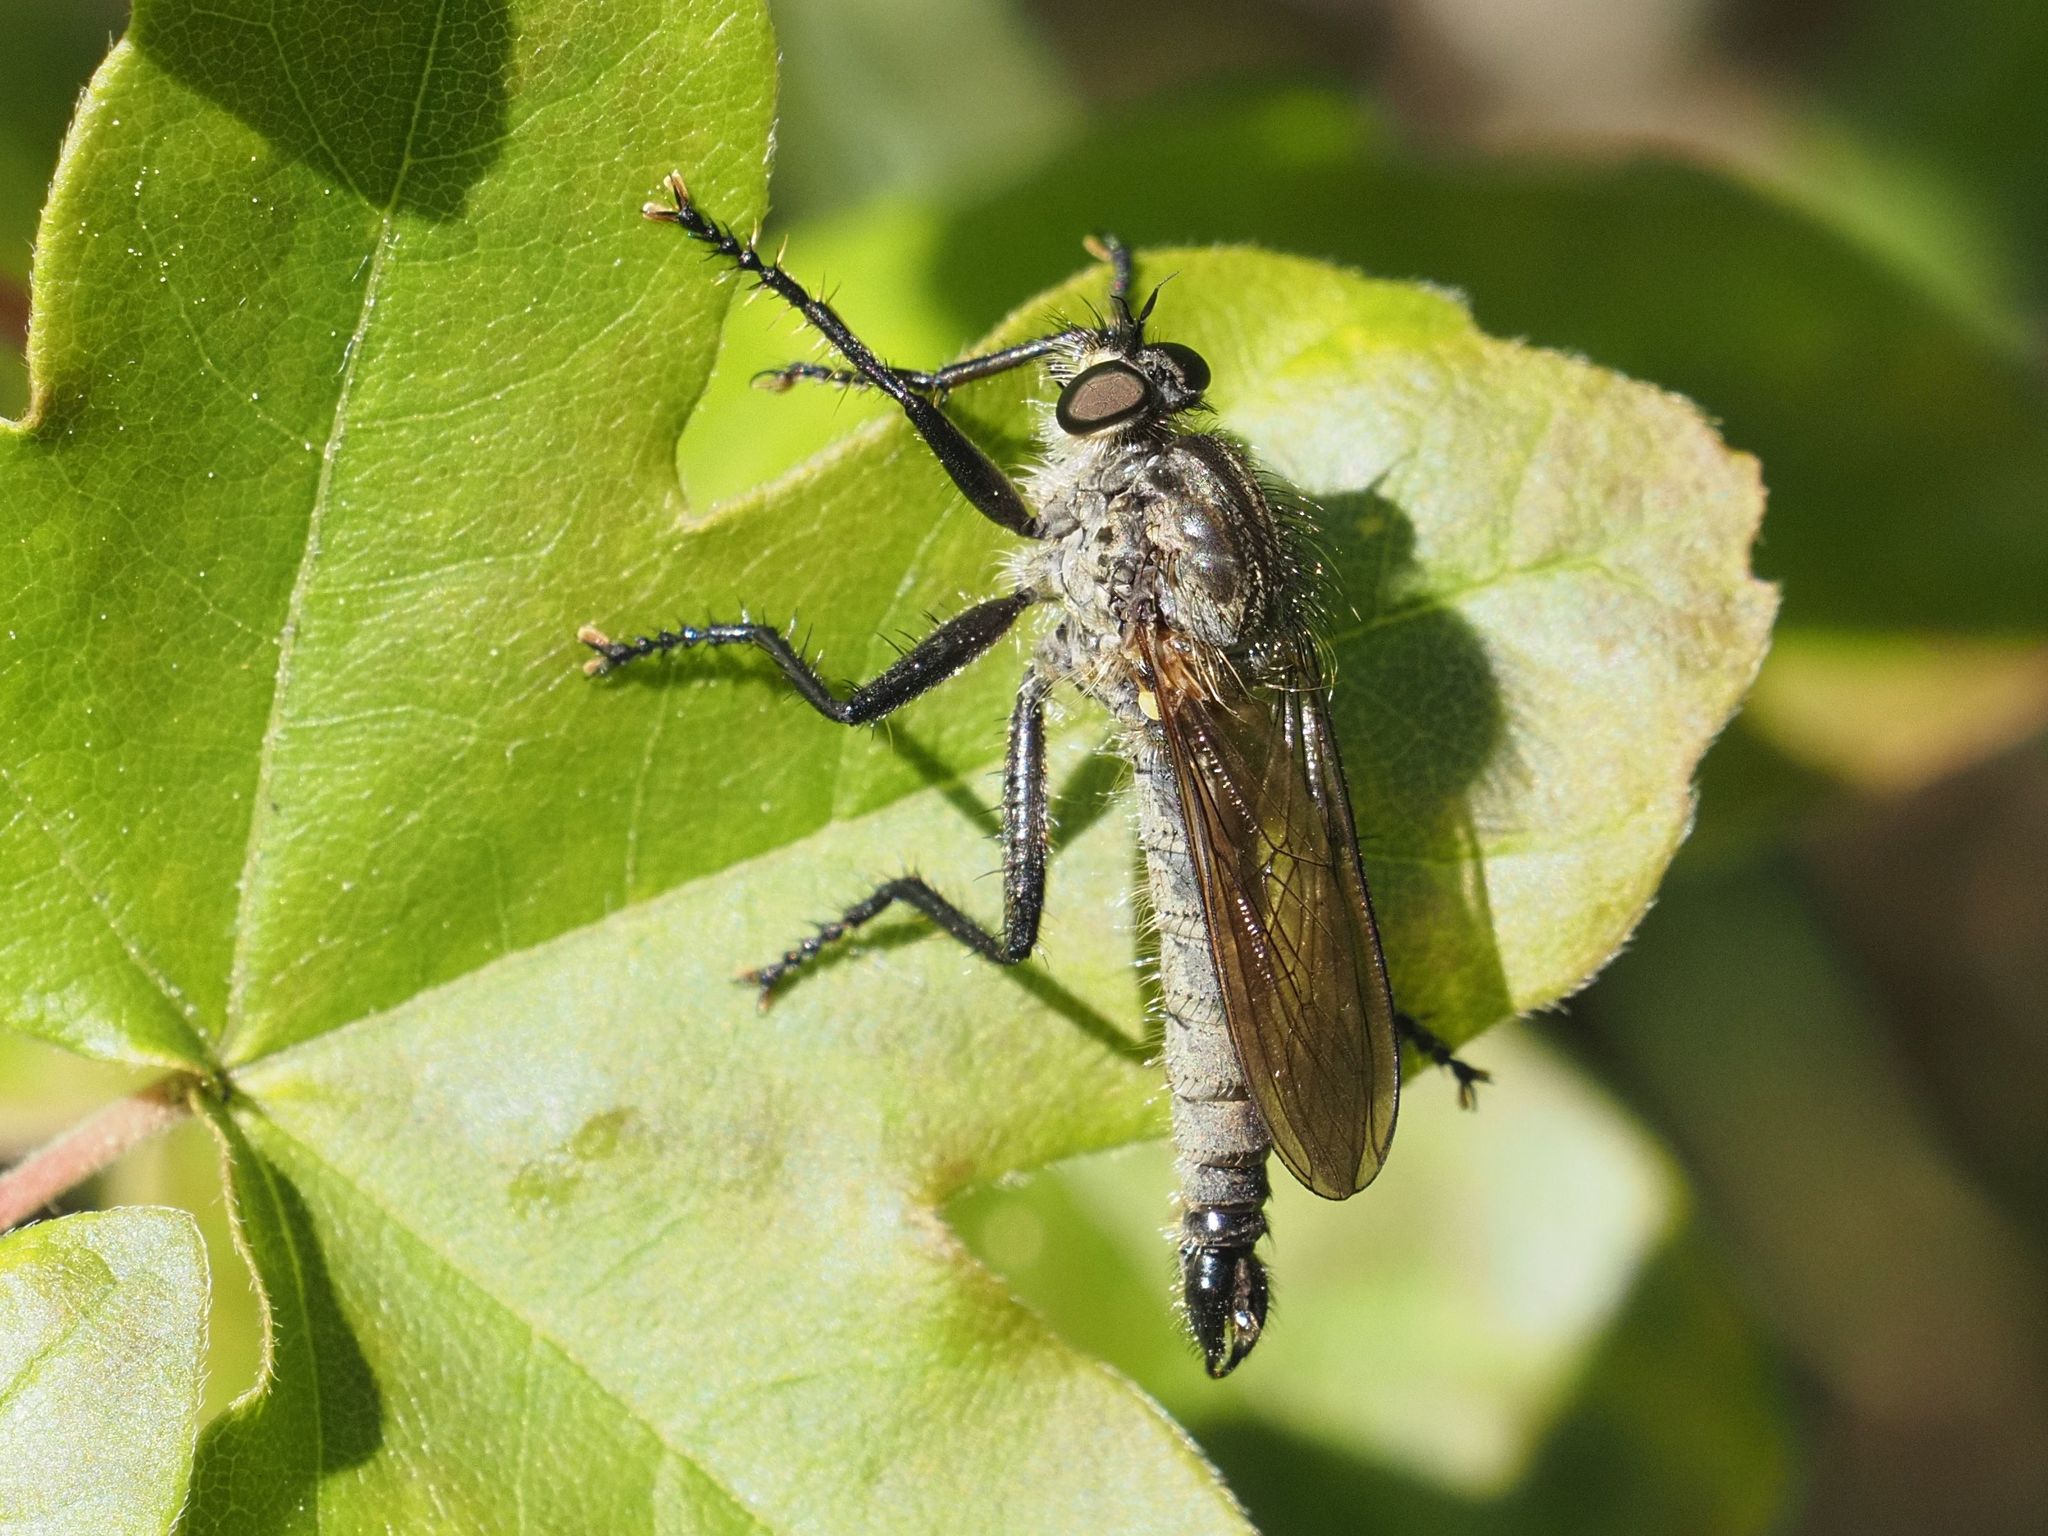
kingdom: Animalia
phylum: Arthropoda
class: Insecta
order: Diptera
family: Asilidae
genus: Didysmachus
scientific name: Didysmachus picipes
